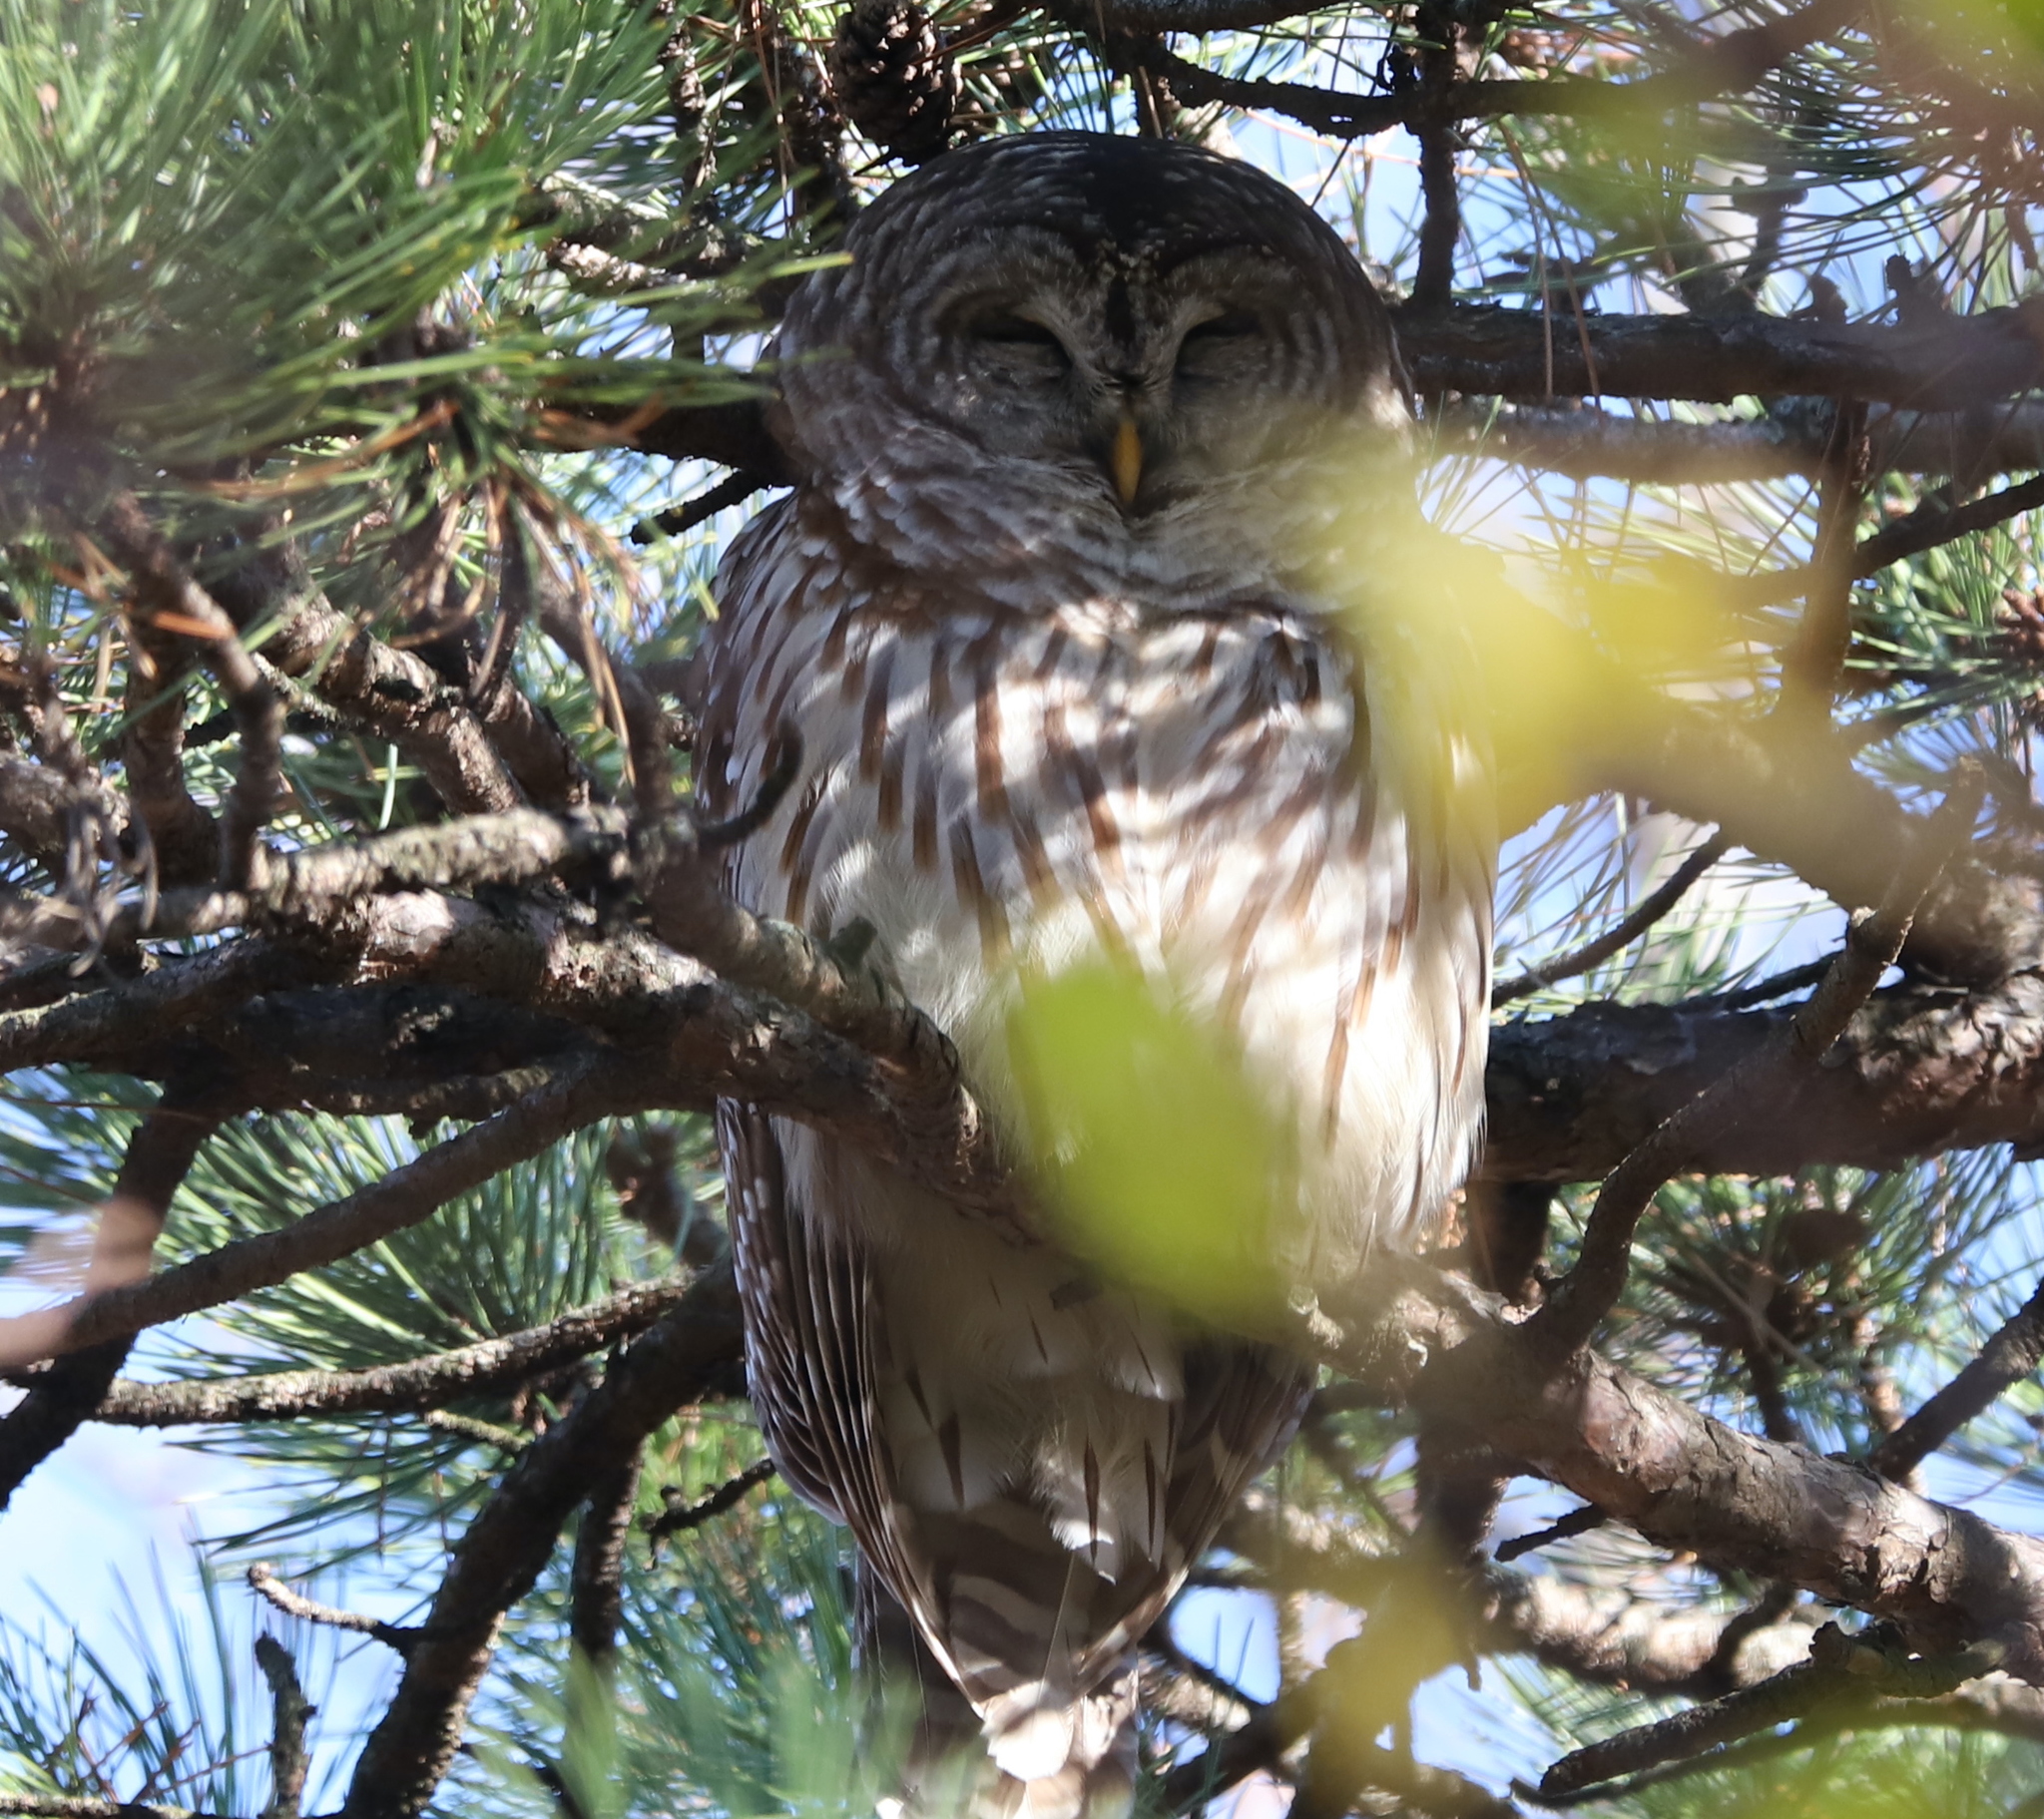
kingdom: Animalia
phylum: Chordata
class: Aves
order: Strigiformes
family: Strigidae
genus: Strix
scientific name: Strix varia
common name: Barred owl
